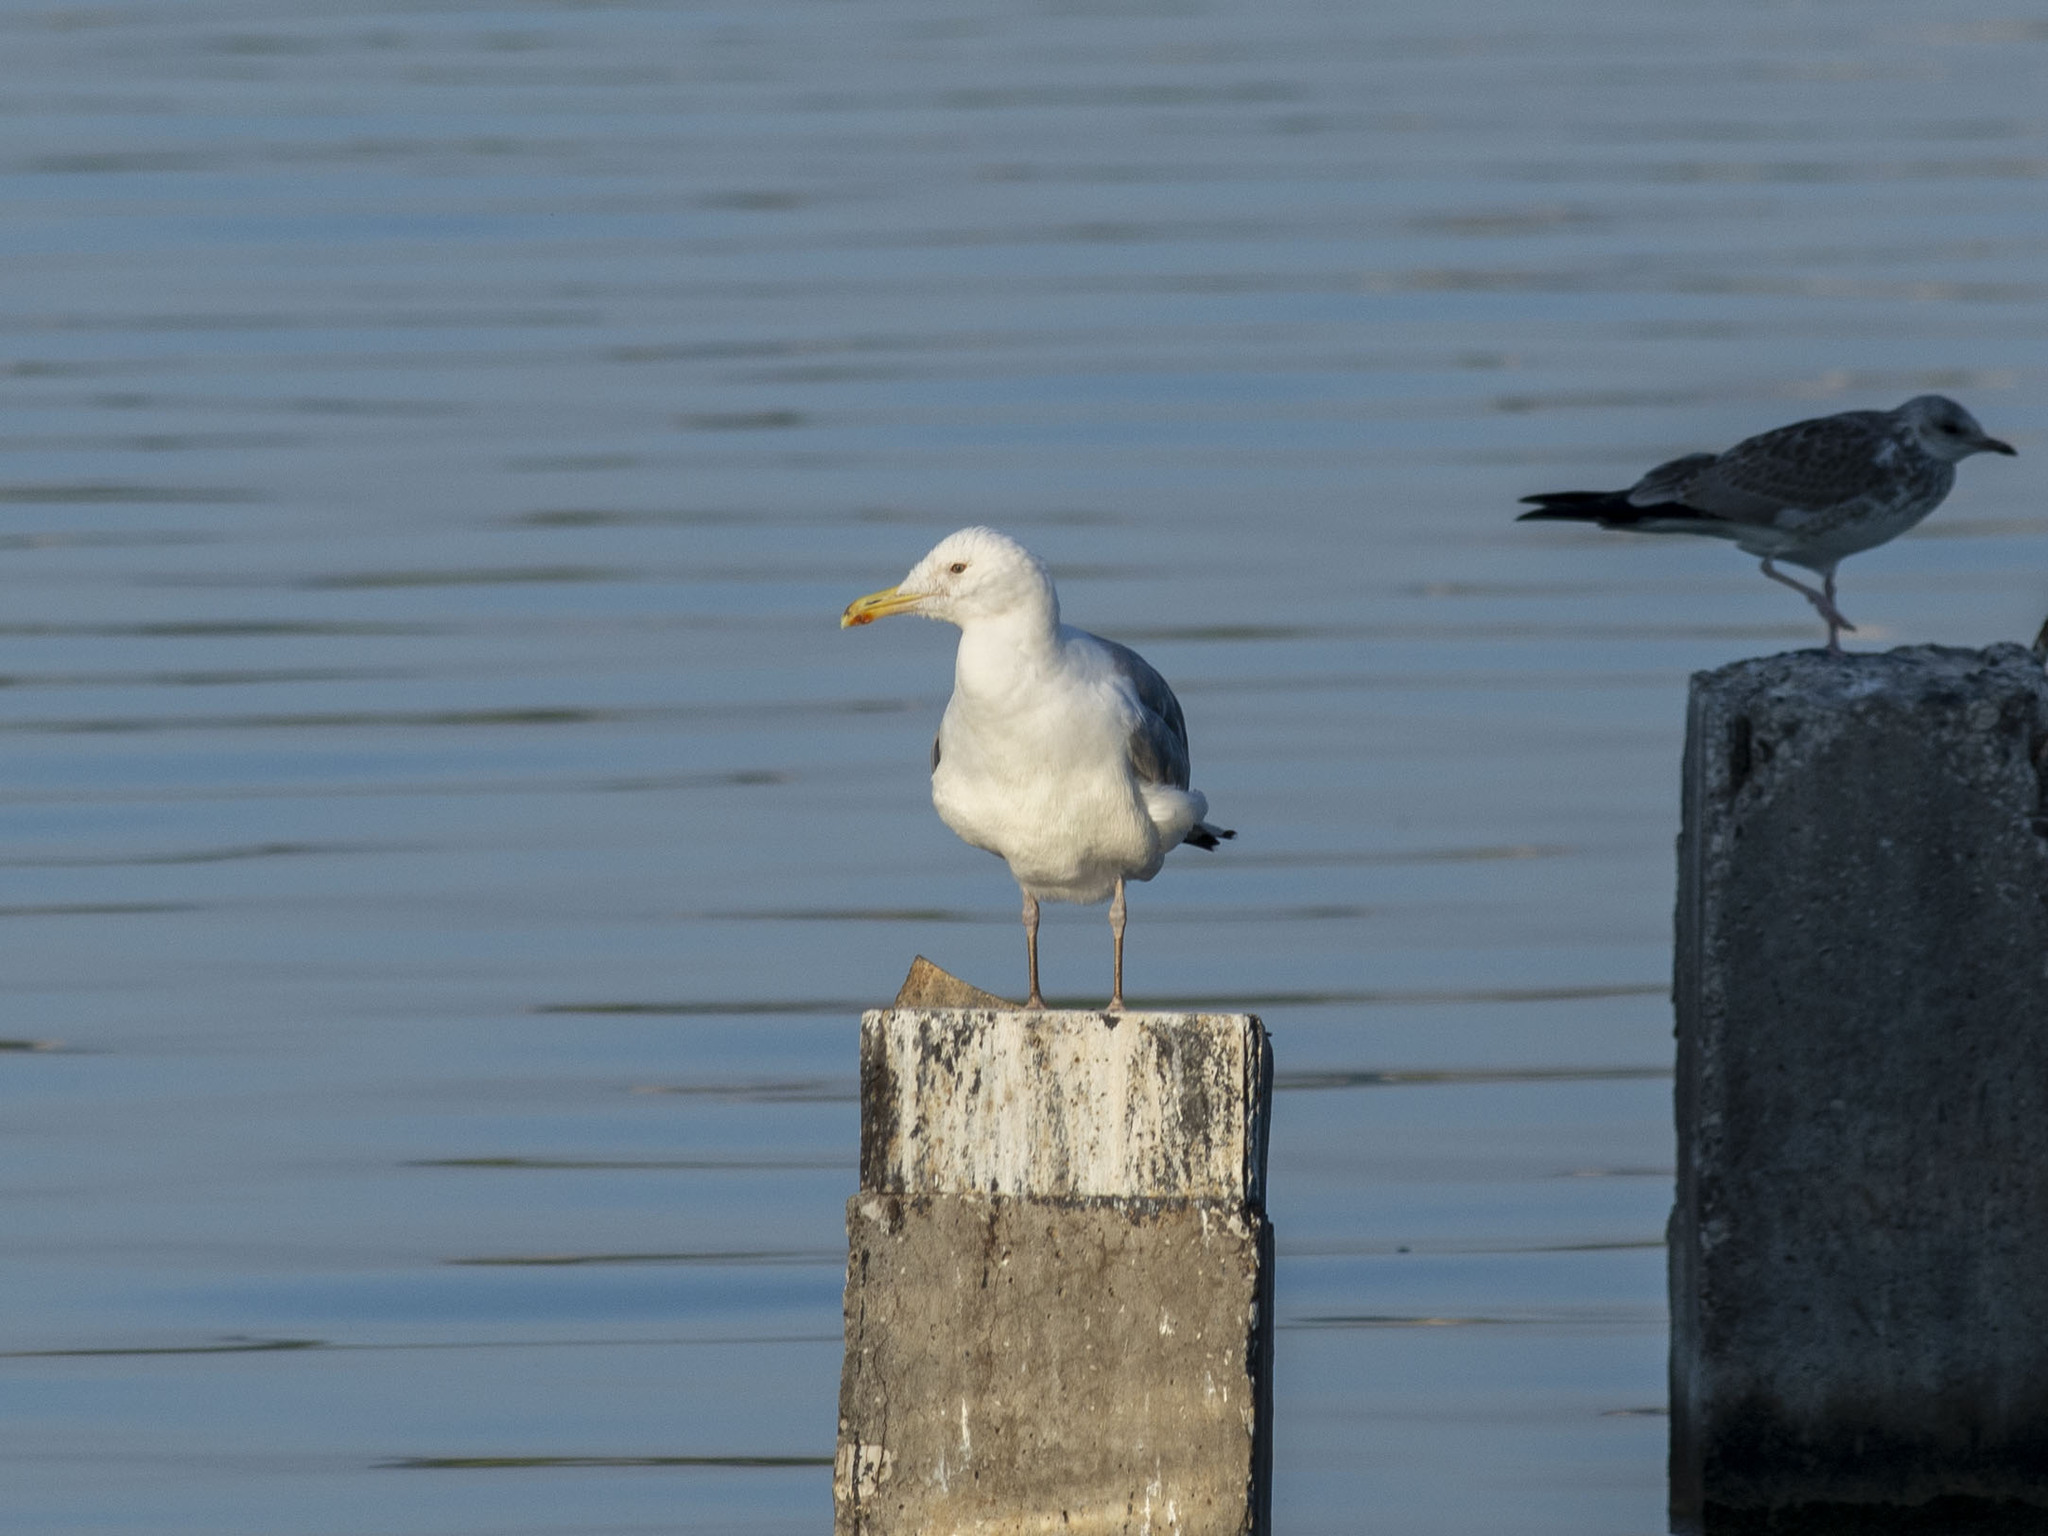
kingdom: Animalia
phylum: Chordata
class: Aves
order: Charadriiformes
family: Laridae
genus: Larus
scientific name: Larus cachinnans
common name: Caspian gull
